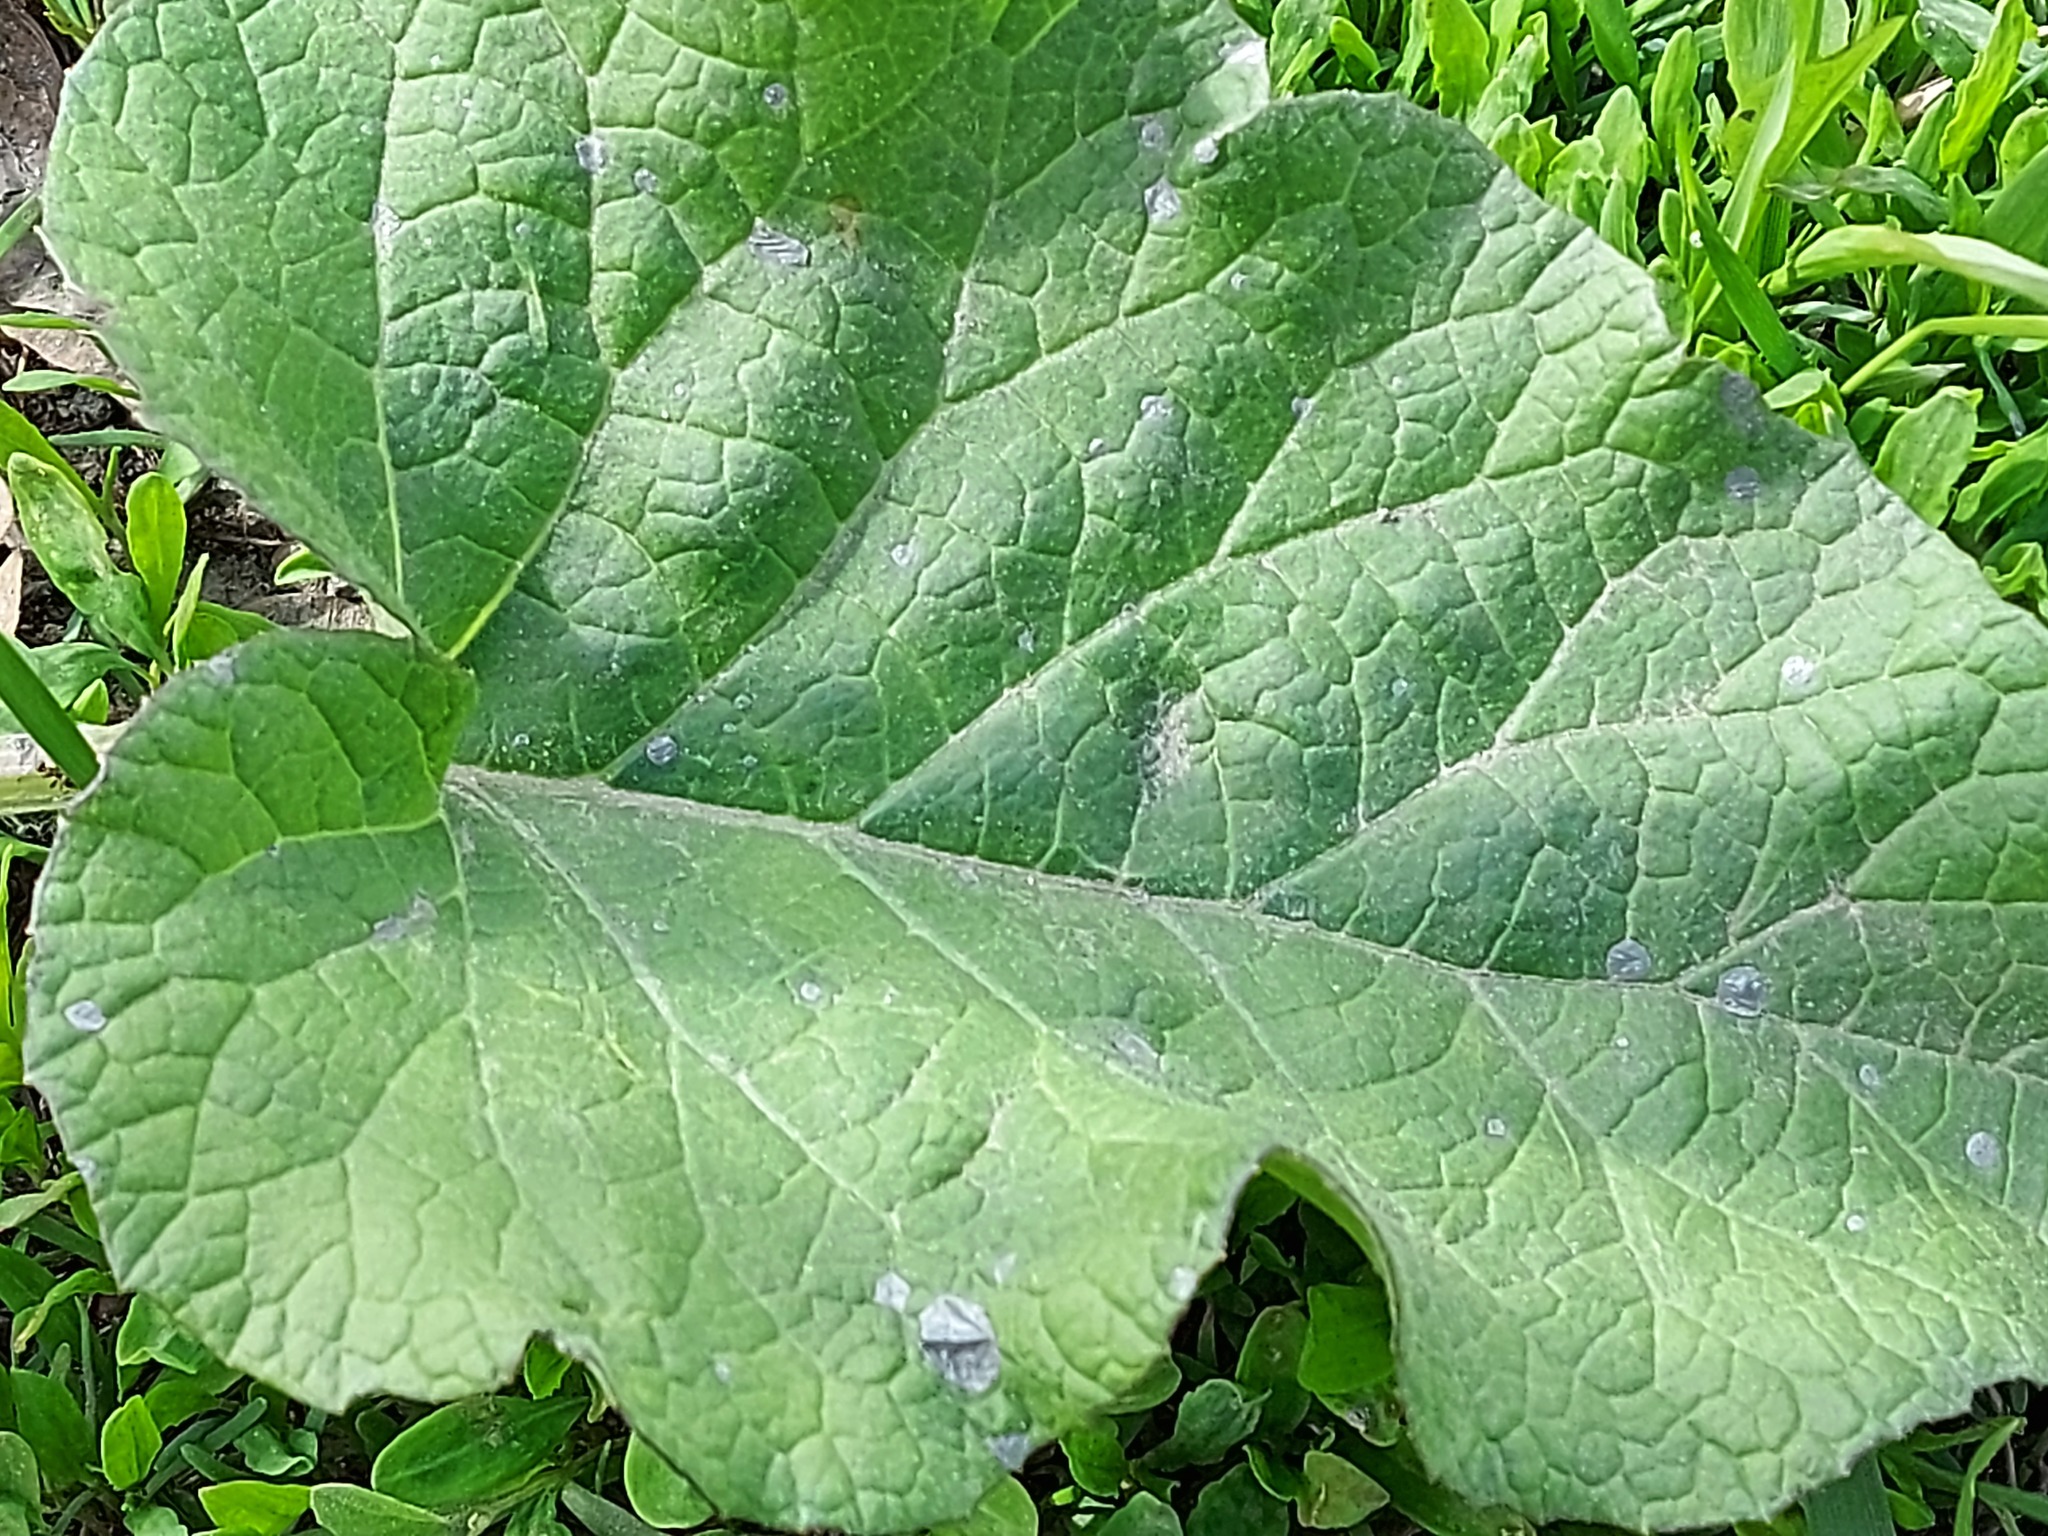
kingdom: Plantae
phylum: Tracheophyta
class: Magnoliopsida
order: Asterales
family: Asteraceae
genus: Arctium
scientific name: Arctium
